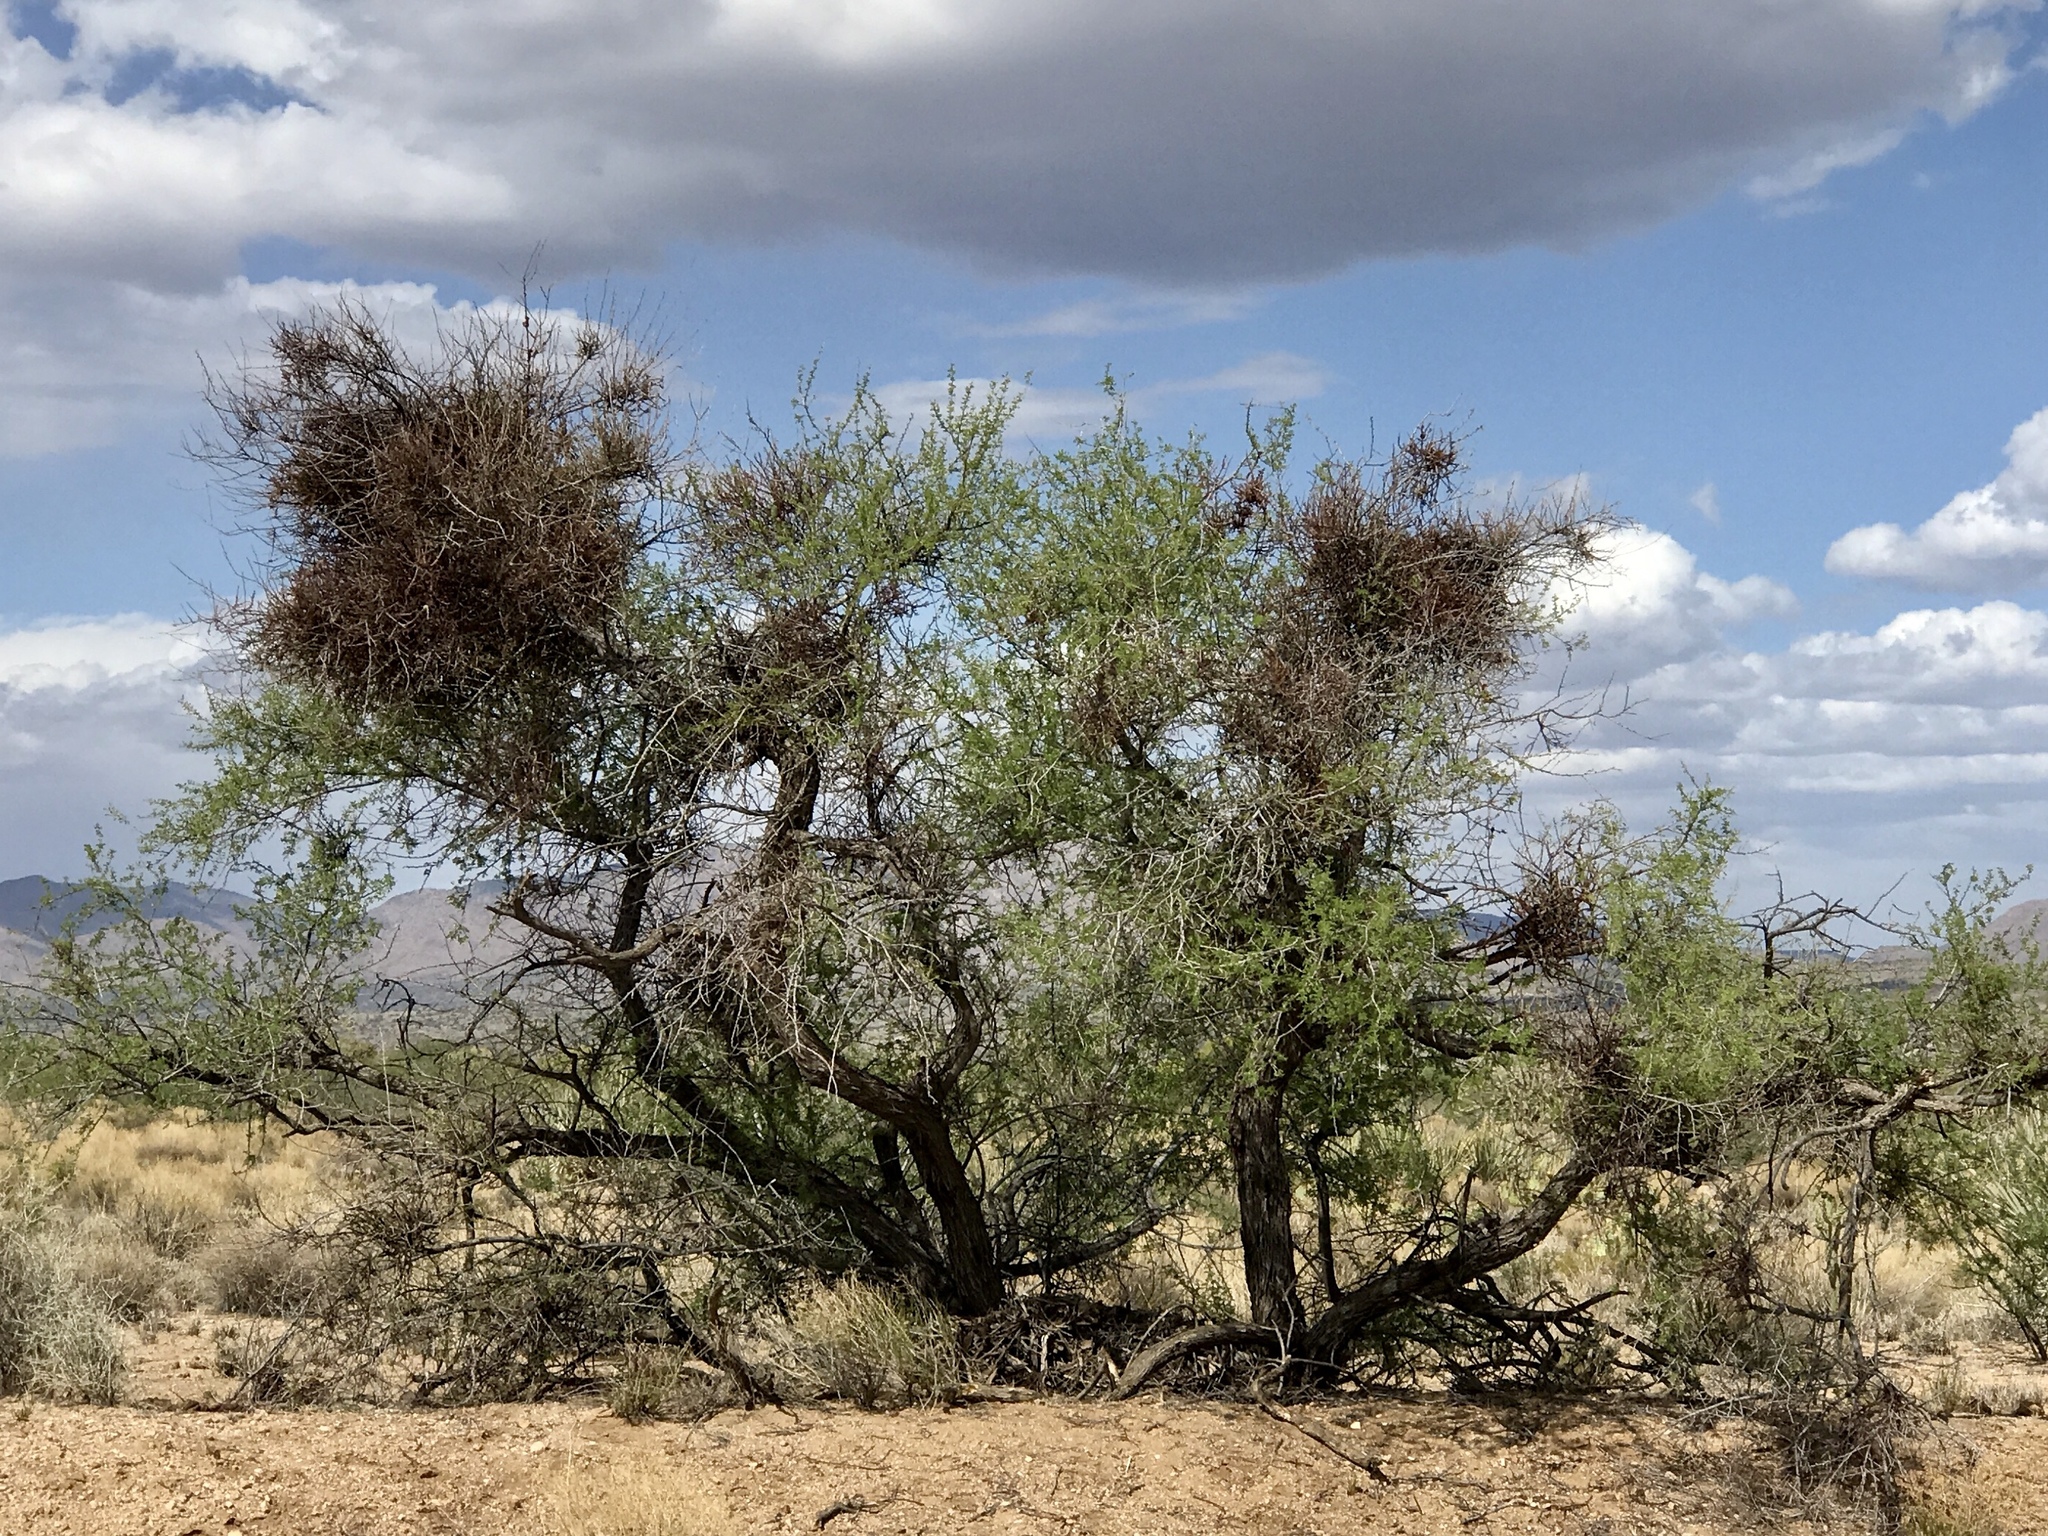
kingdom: Plantae
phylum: Tracheophyta
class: Magnoliopsida
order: Fabales
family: Fabaceae
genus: Senegalia
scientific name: Senegalia greggii
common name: Texas-mimosa
